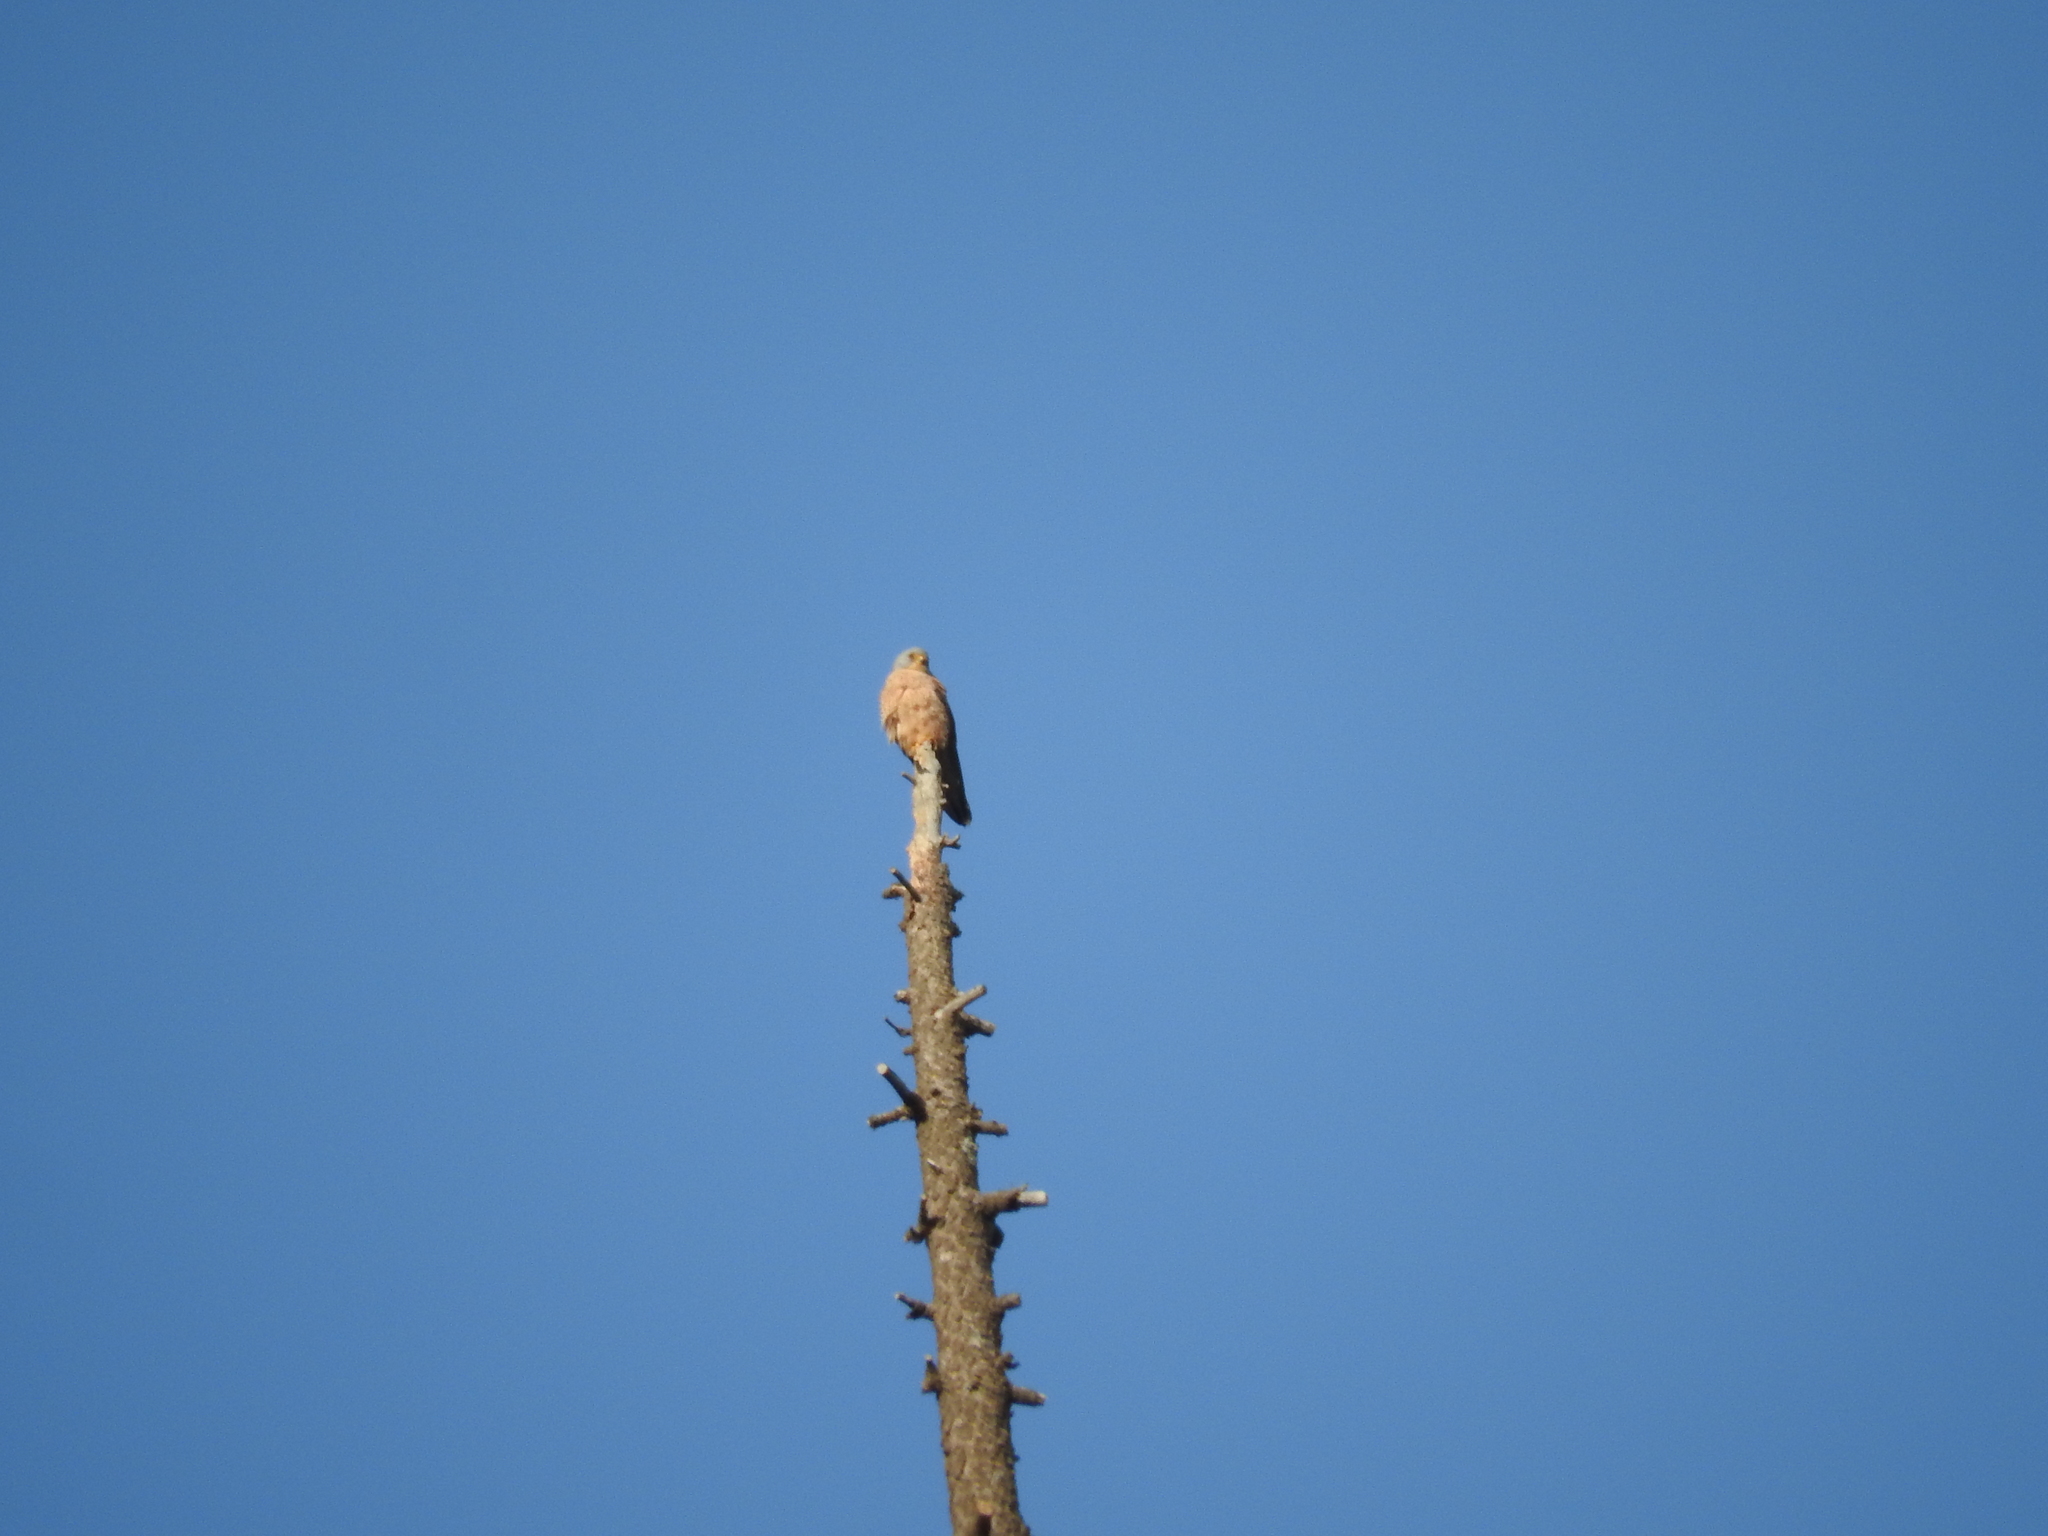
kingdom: Animalia
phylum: Chordata
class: Aves
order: Falconiformes
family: Falconidae
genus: Falco
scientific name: Falco tinnunculus
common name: Common kestrel
